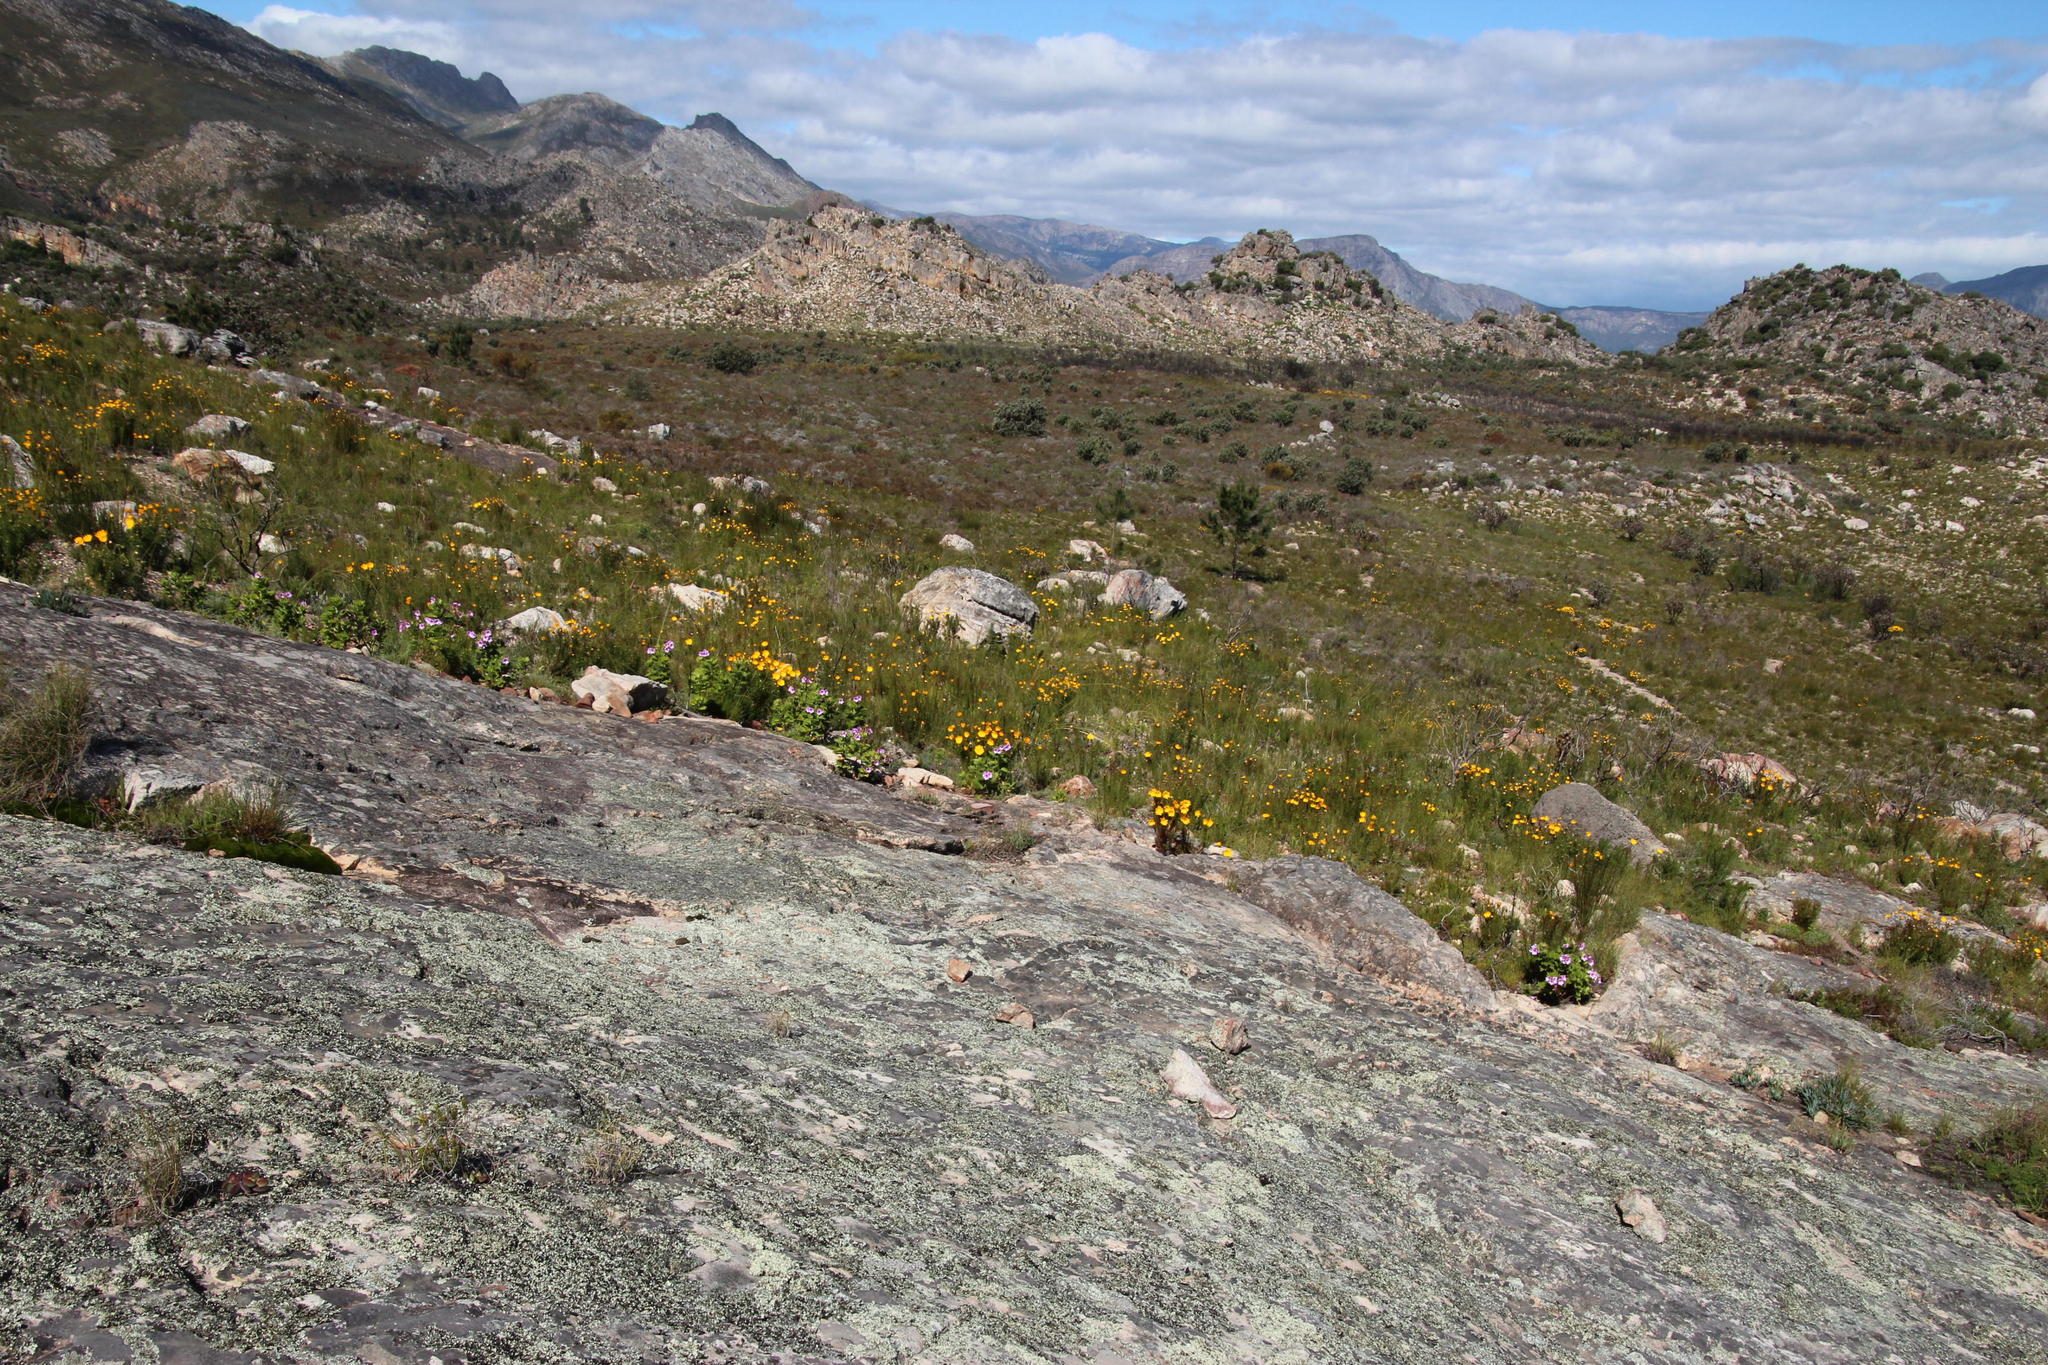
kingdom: Plantae
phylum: Tracheophyta
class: Magnoliopsida
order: Asterales
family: Asteraceae
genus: Euryops
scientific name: Euryops abrotanifolius
